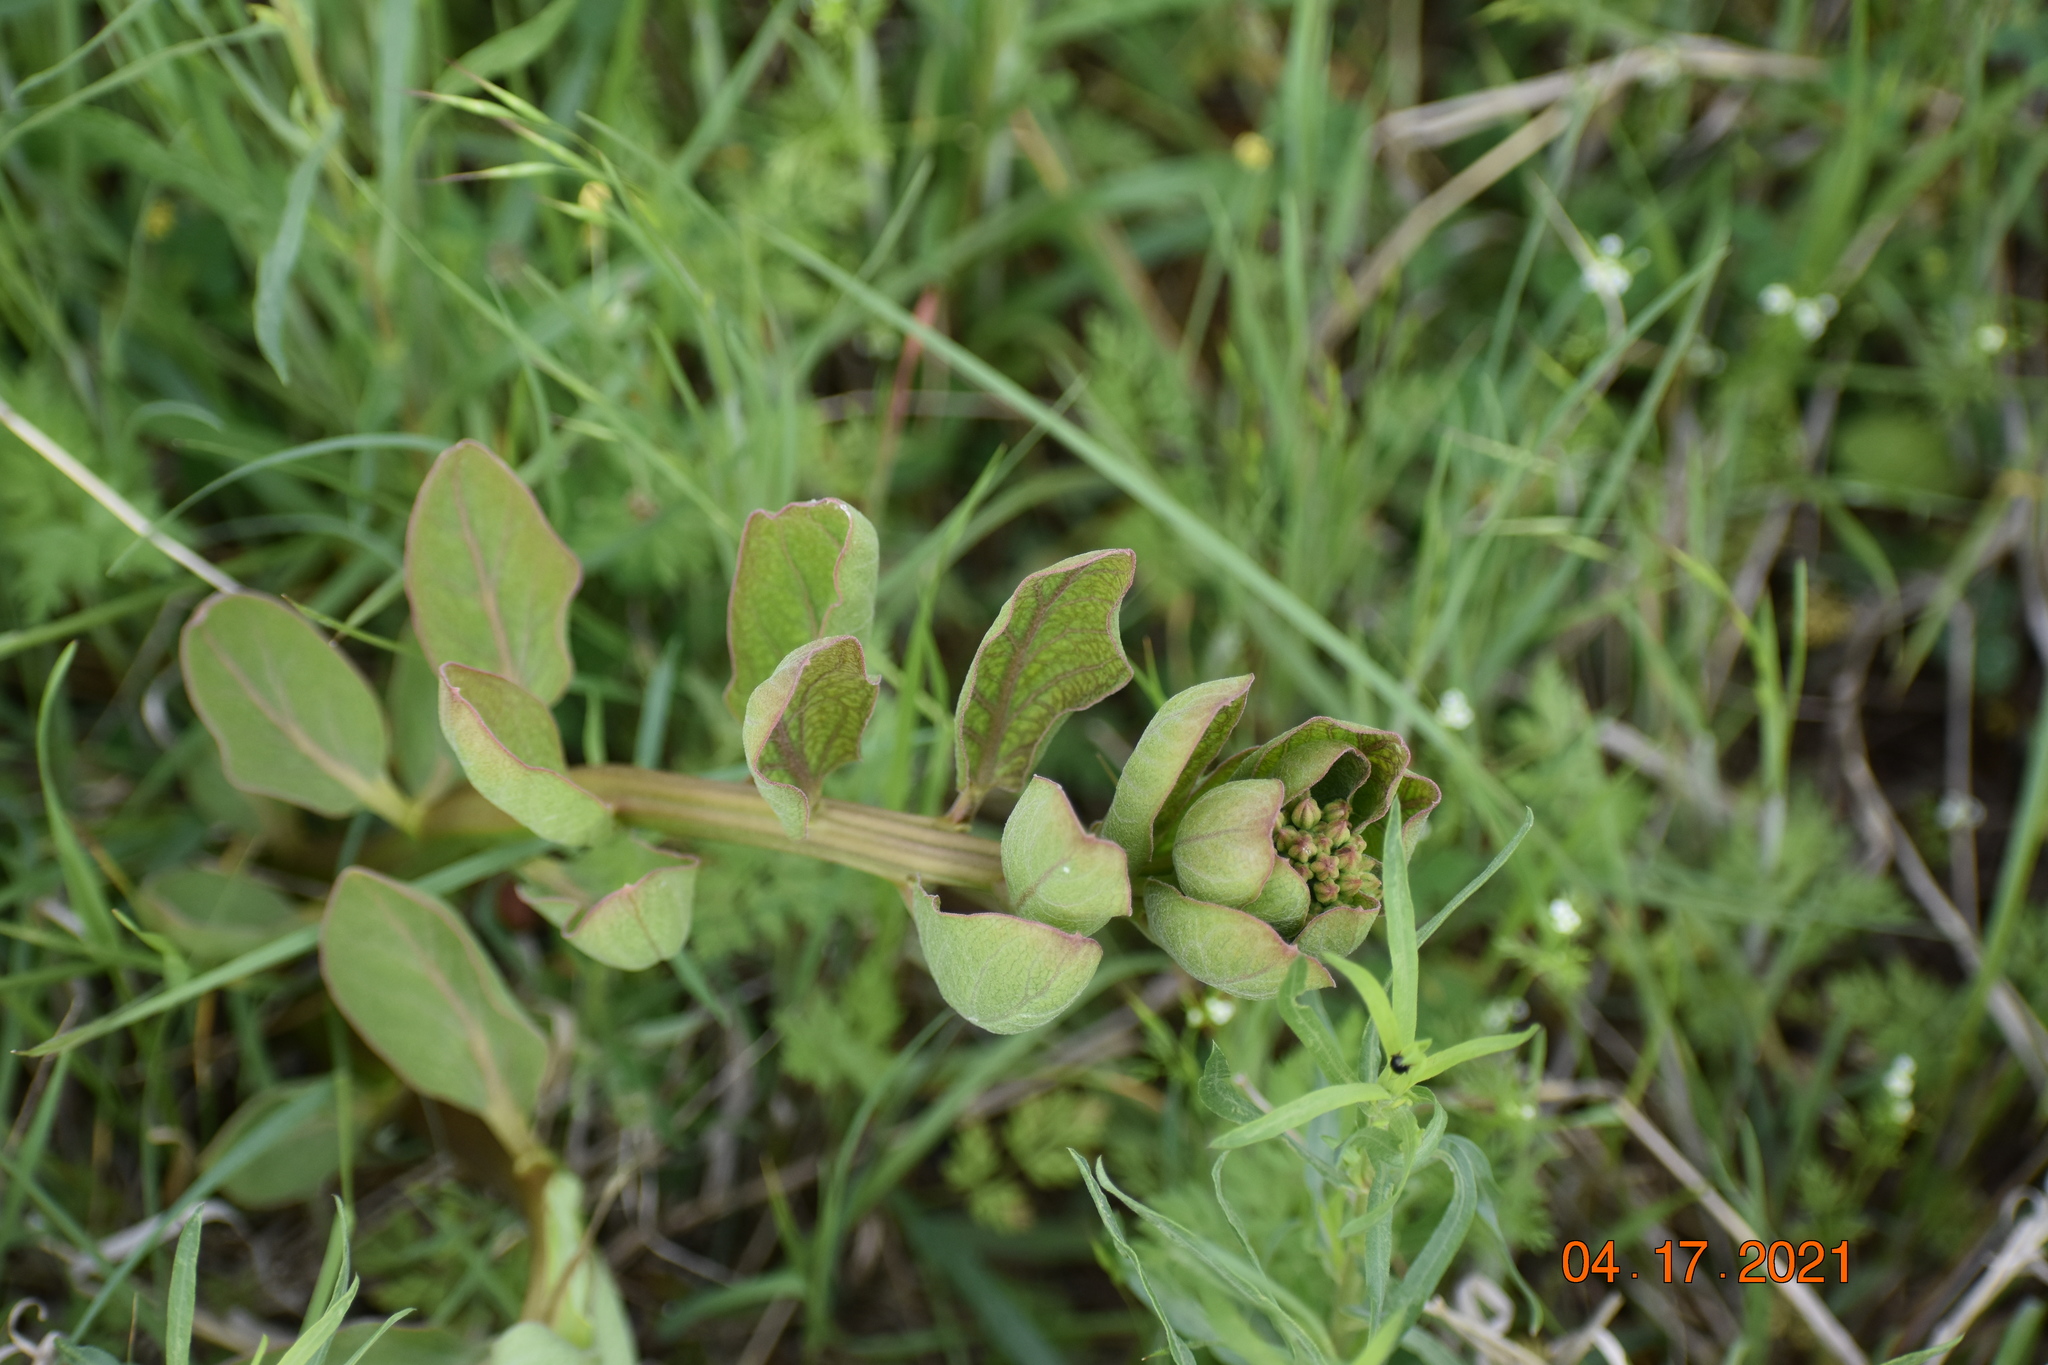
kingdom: Plantae
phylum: Tracheophyta
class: Magnoliopsida
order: Gentianales
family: Apocynaceae
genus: Asclepias
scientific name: Asclepias viridis
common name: Antelope-horns
